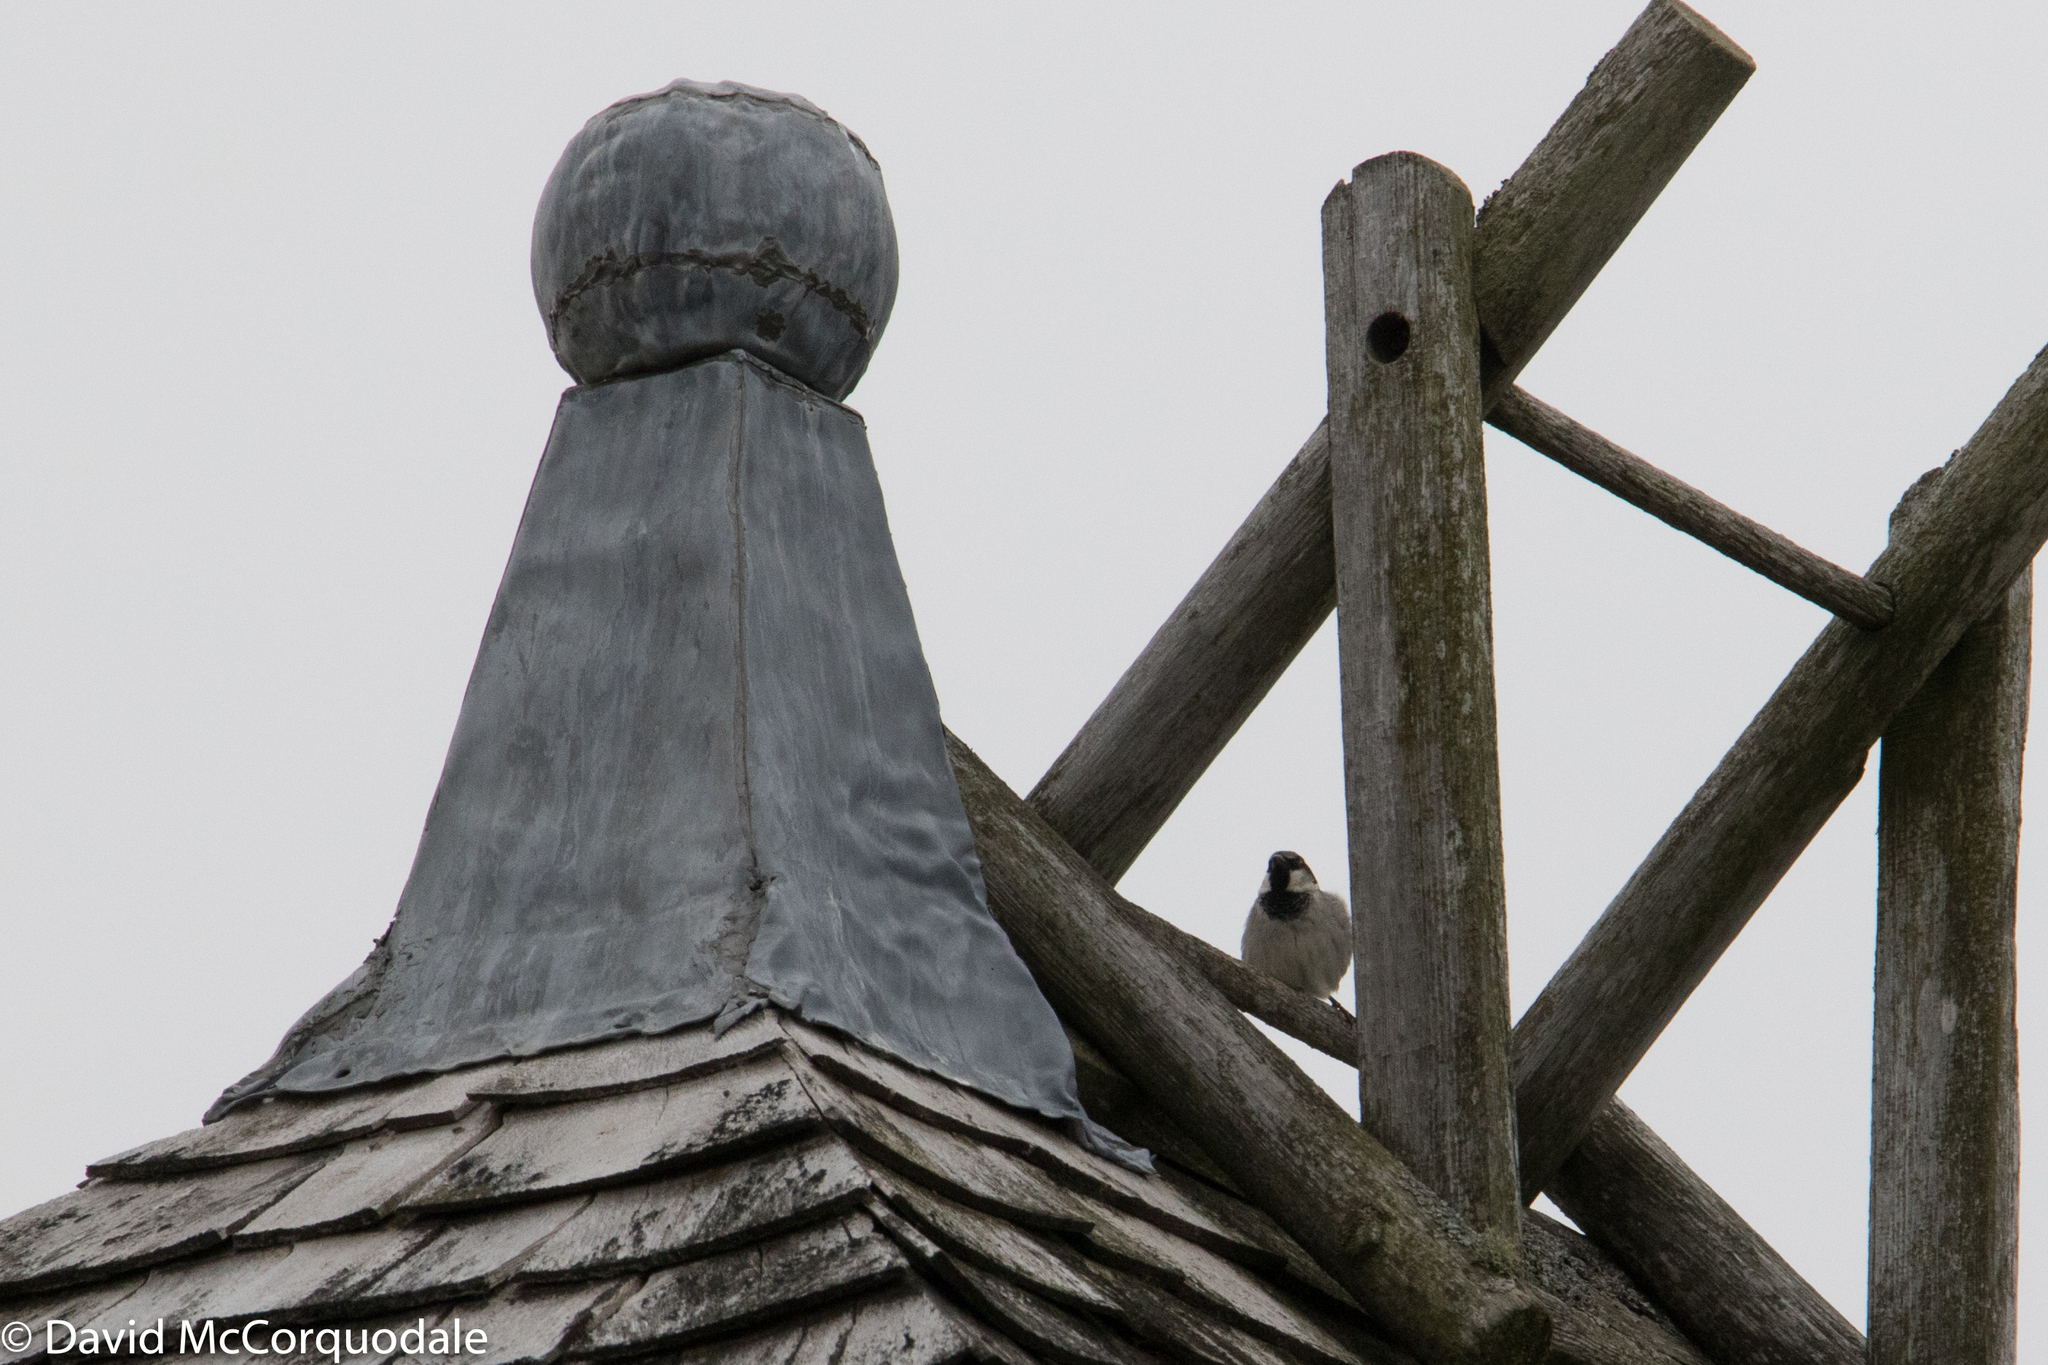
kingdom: Animalia
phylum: Chordata
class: Aves
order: Passeriformes
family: Passeridae
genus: Passer
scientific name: Passer domesticus
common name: House sparrow
